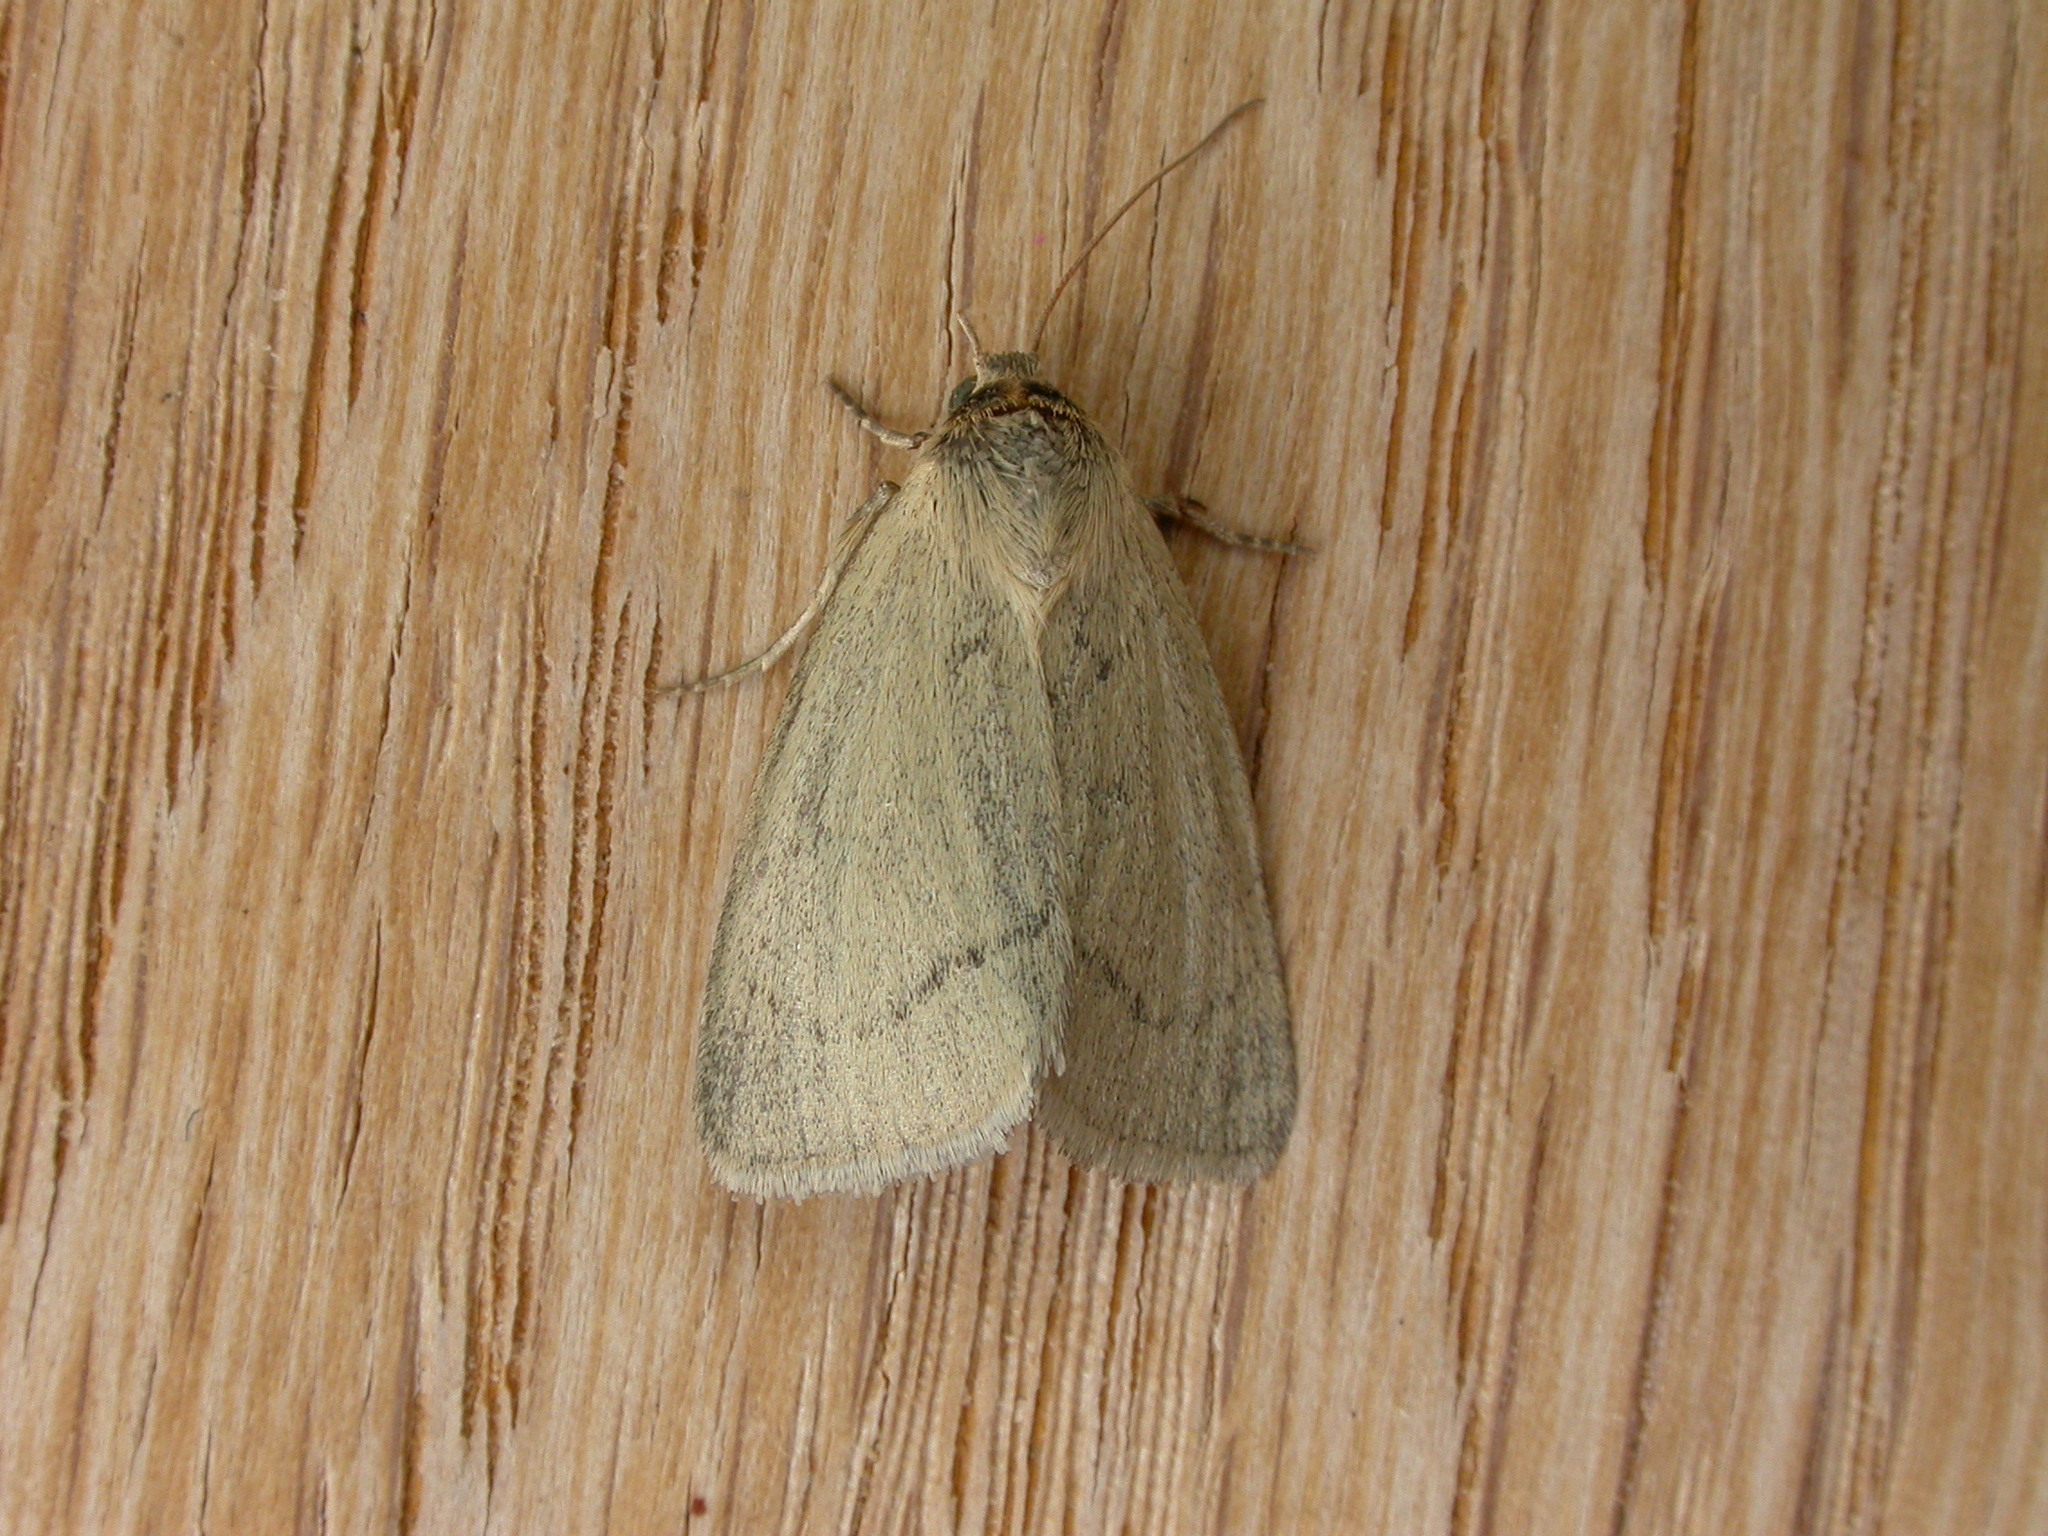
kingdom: Animalia
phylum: Arthropoda
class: Insecta
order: Lepidoptera
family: Noctuidae
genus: Heliocheilus
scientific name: Heliocheilus moribunda
